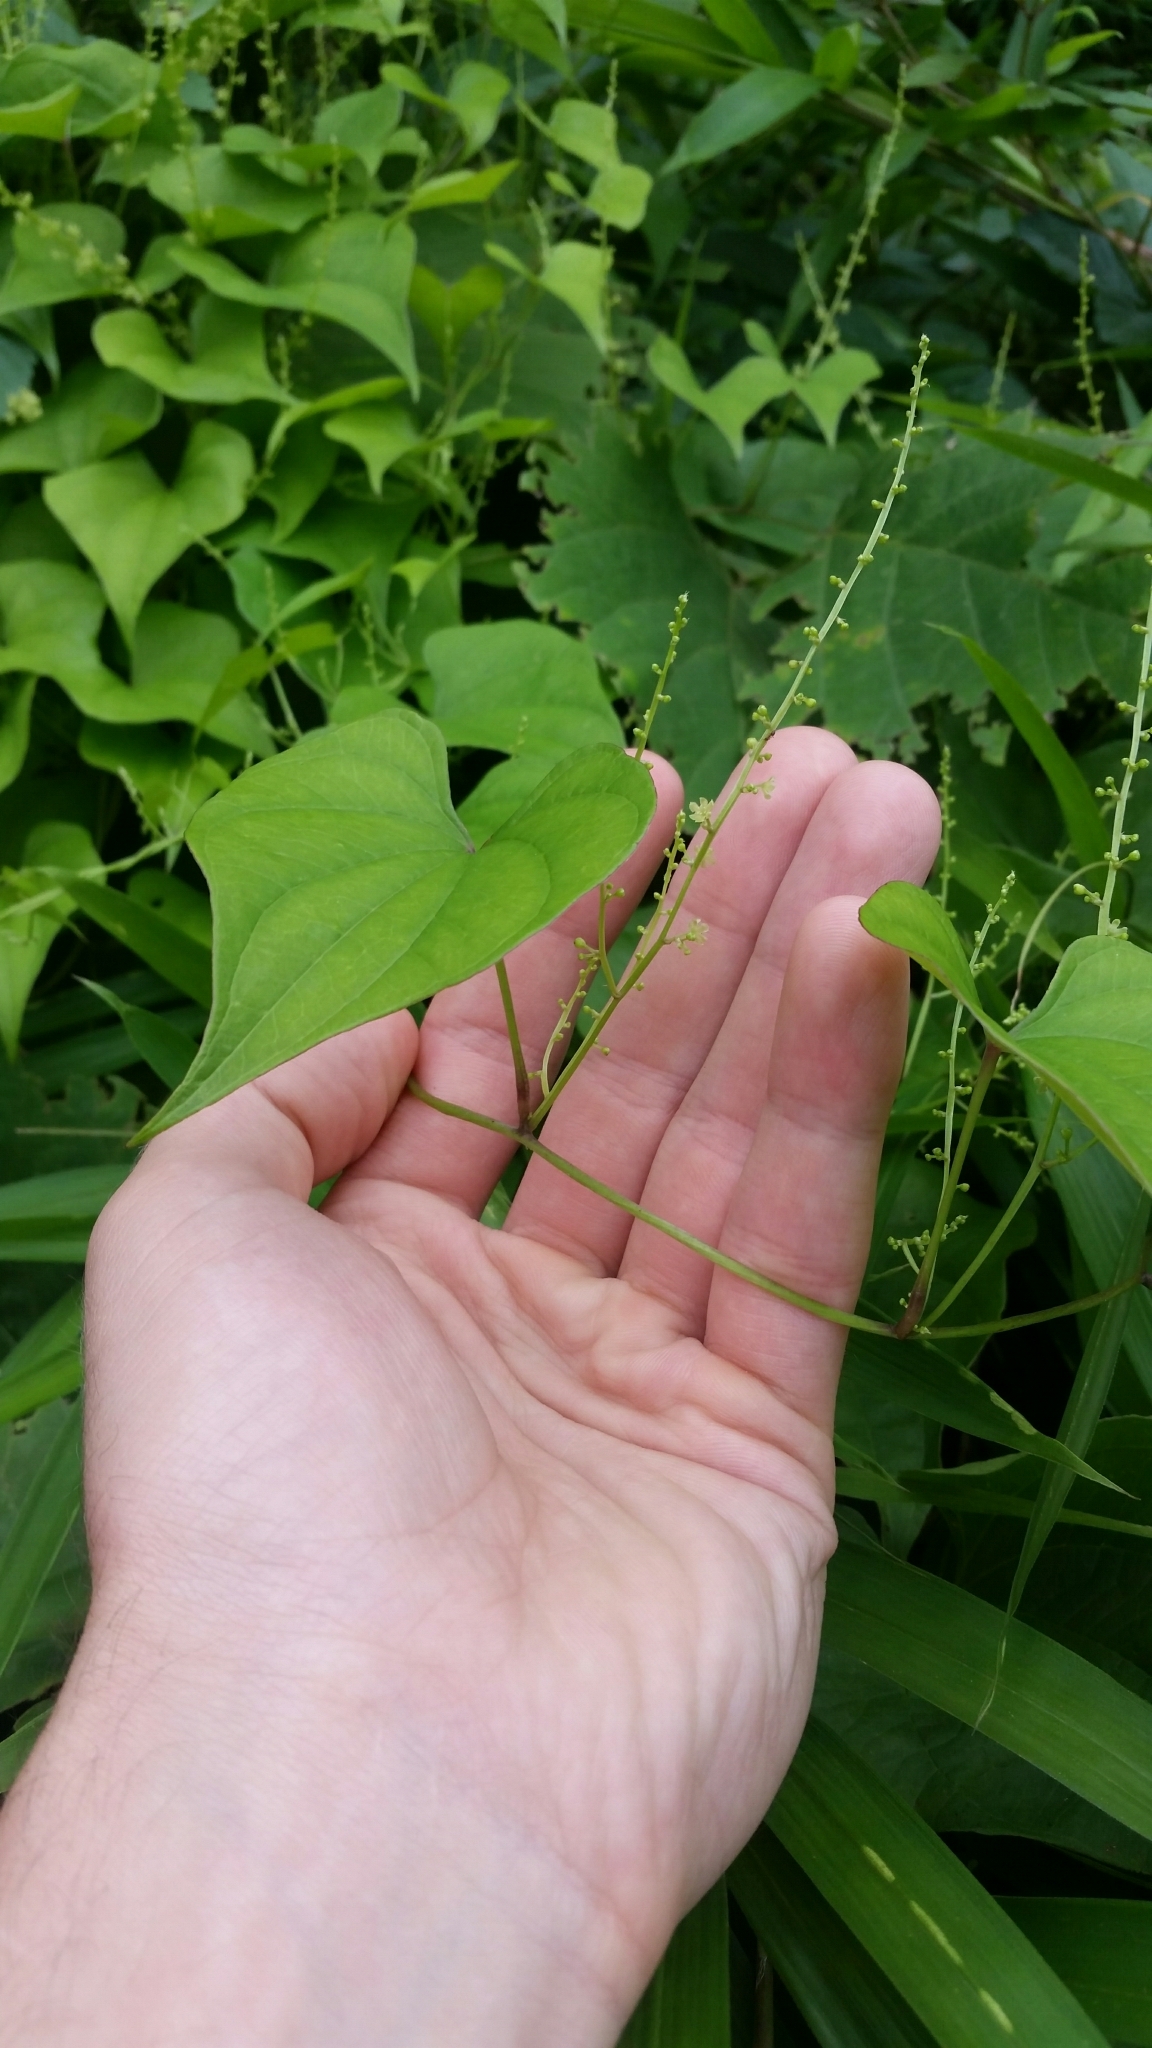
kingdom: Plantae
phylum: Tracheophyta
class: Liliopsida
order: Dioscoreales
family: Dioscoreaceae
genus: Dioscorea
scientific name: Dioscorea tokoro
